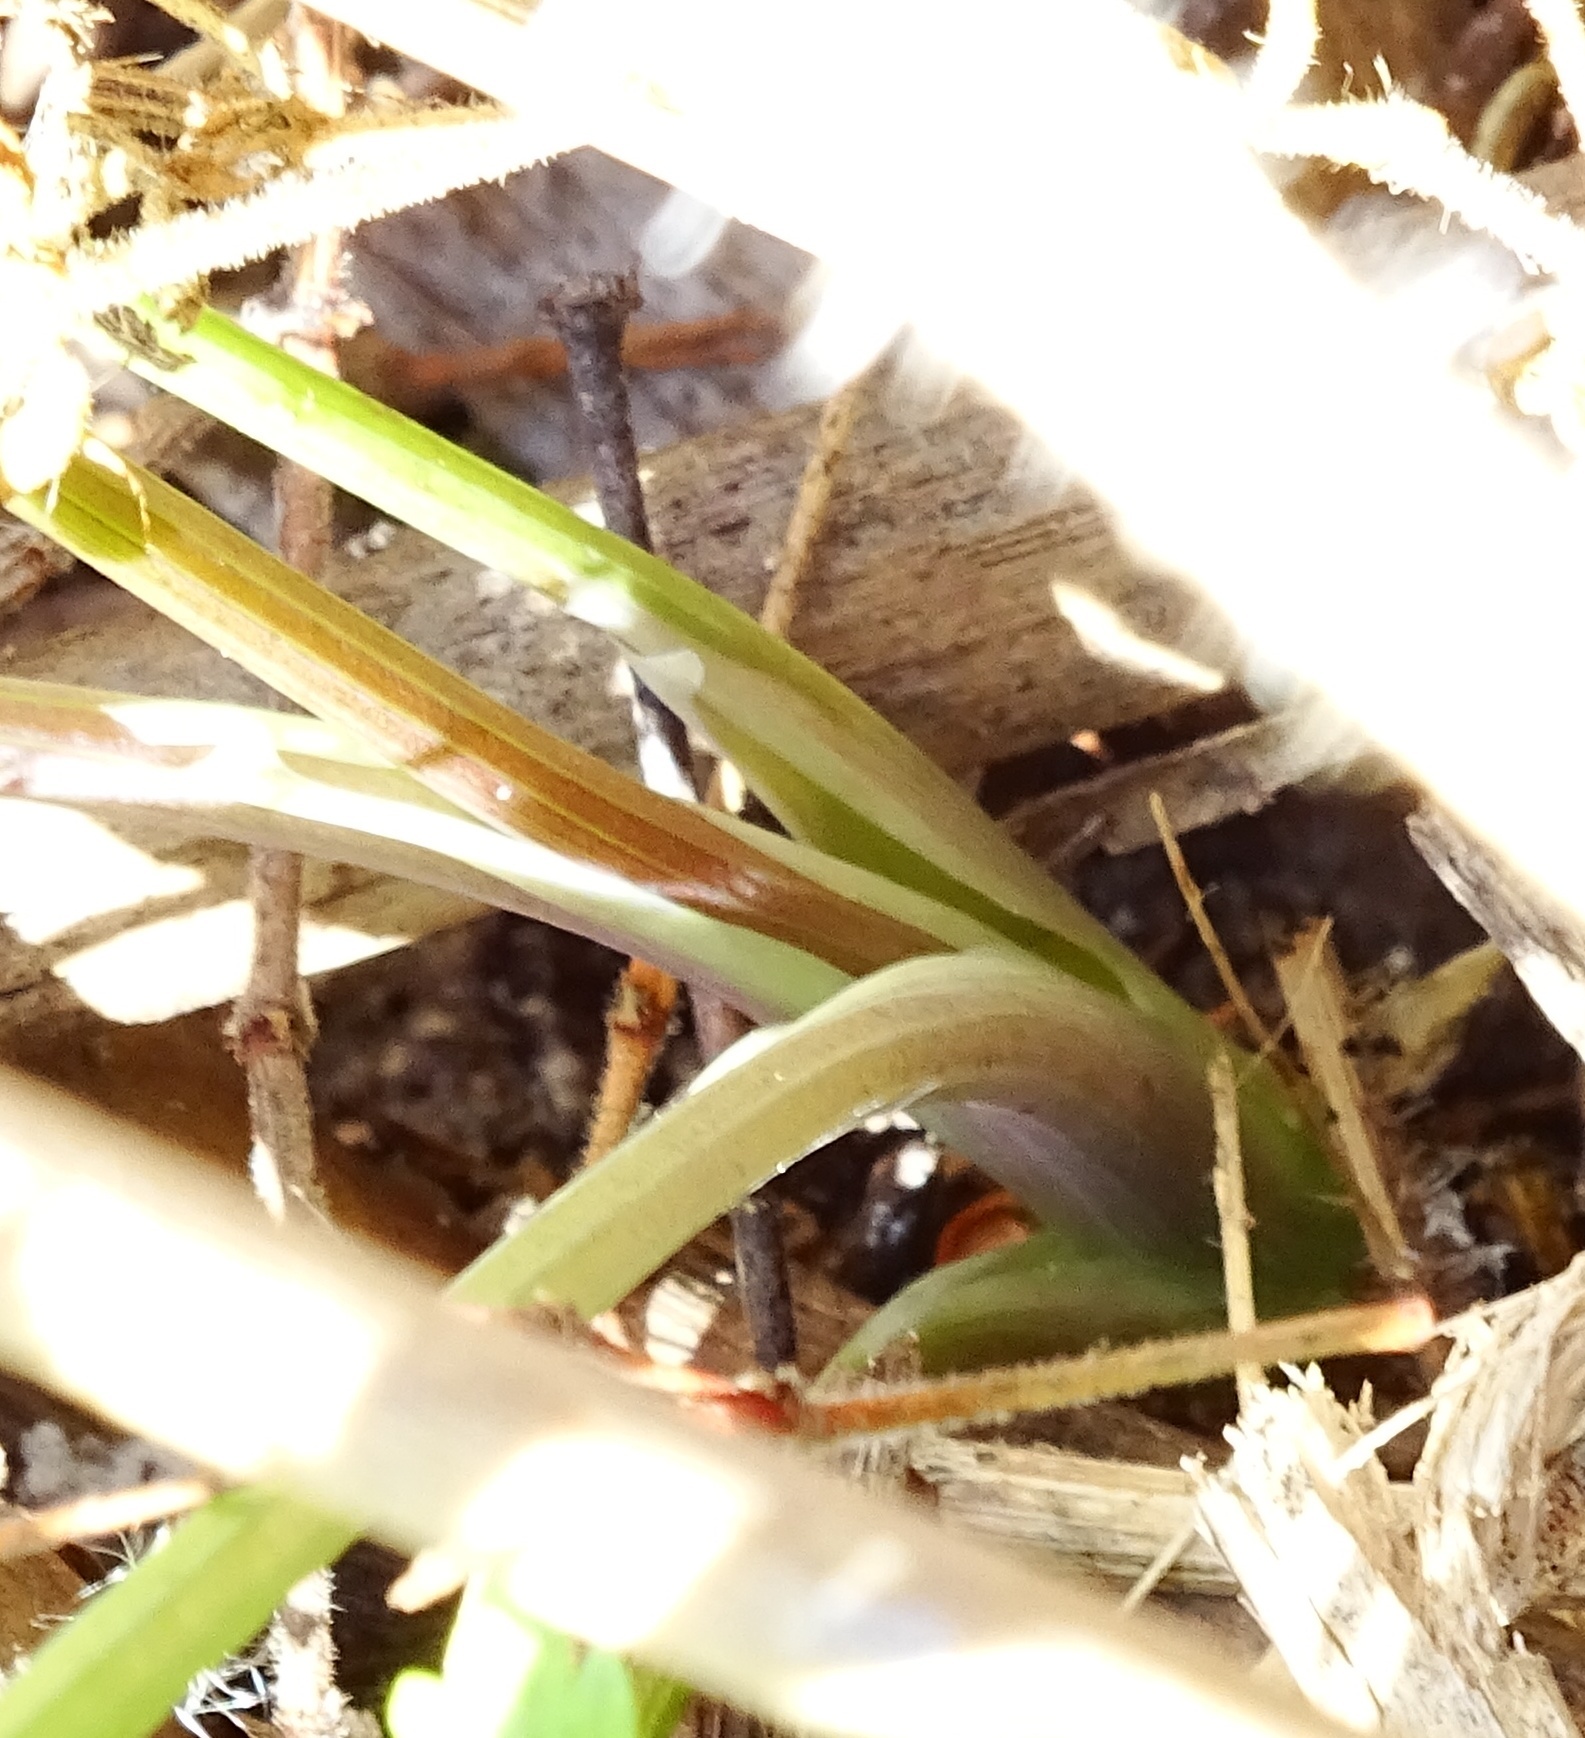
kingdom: Plantae
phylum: Tracheophyta
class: Magnoliopsida
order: Apiales
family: Apiaceae
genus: Conium
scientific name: Conium maculatum
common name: Hemlock
